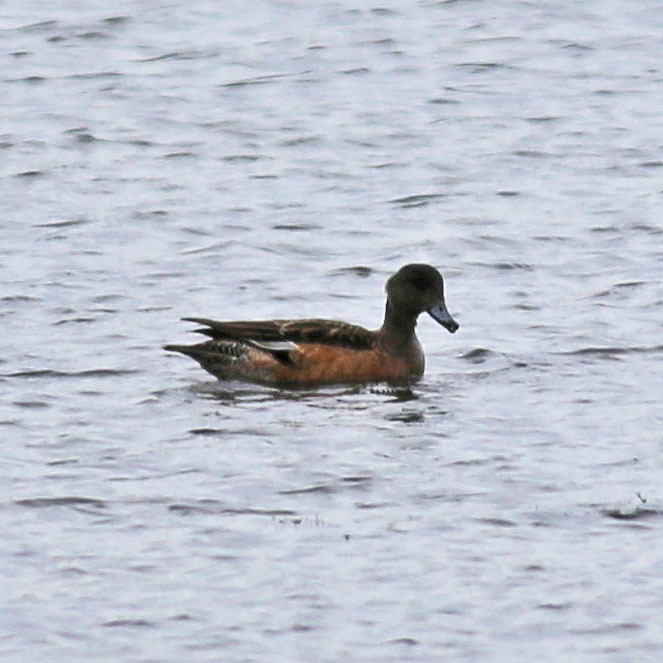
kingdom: Animalia
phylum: Chordata
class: Aves
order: Anseriformes
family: Anatidae
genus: Mareca
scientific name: Mareca americana
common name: American wigeon
